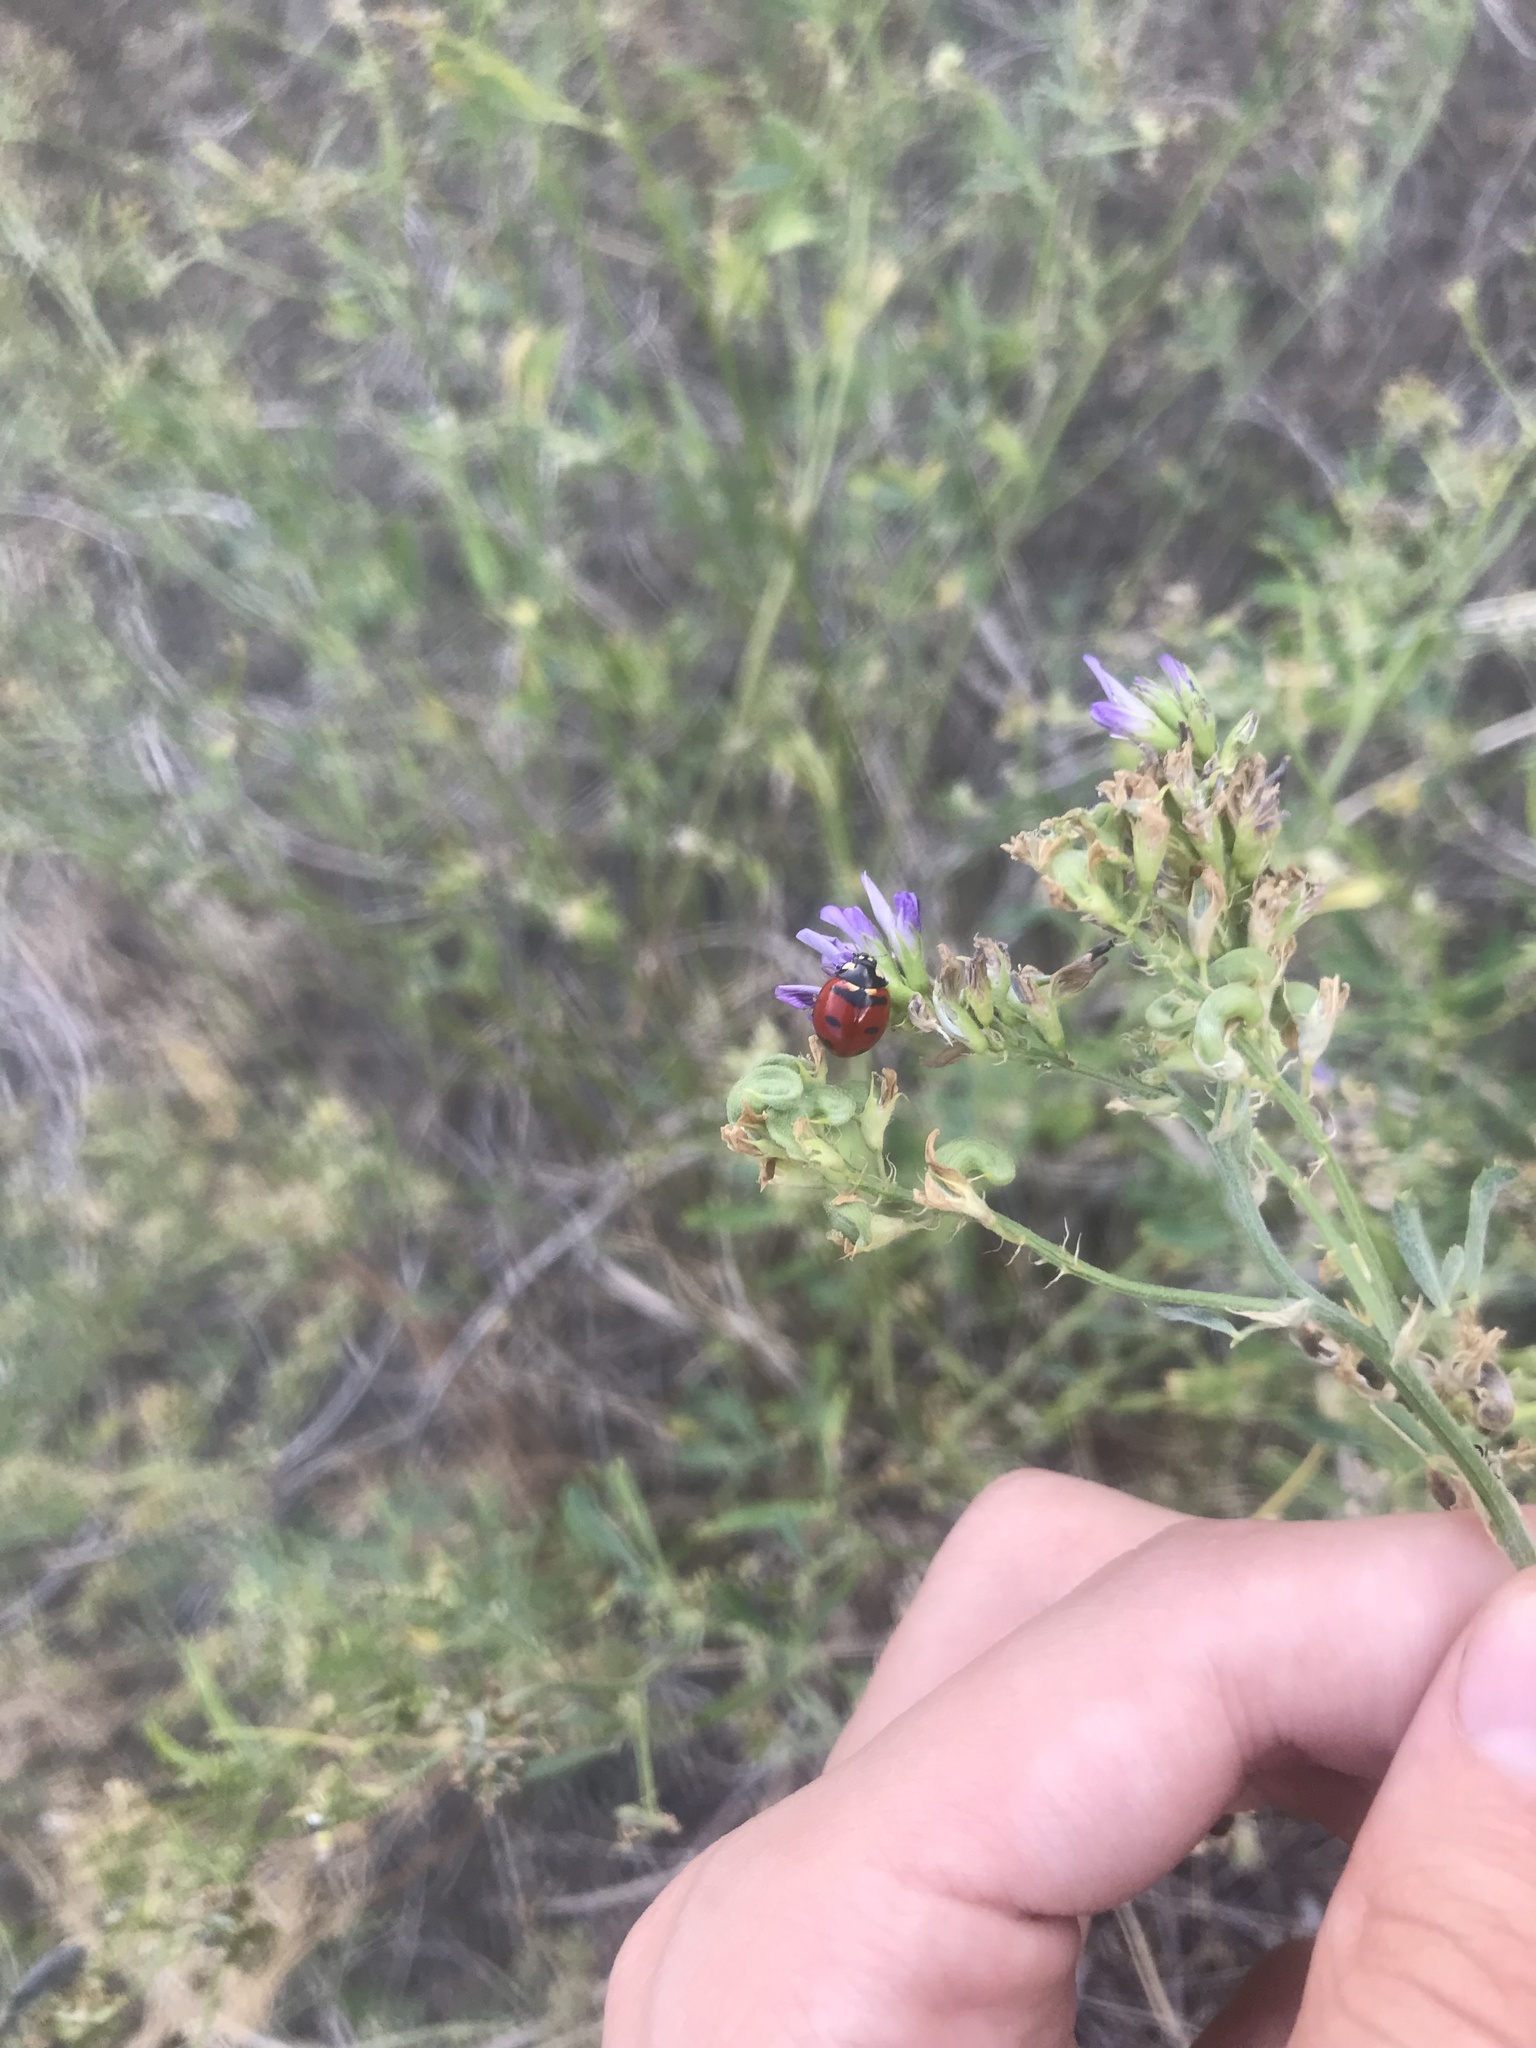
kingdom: Animalia
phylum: Arthropoda
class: Insecta
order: Coleoptera
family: Coccinellidae
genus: Coccinella
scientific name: Coccinella transversoguttata
